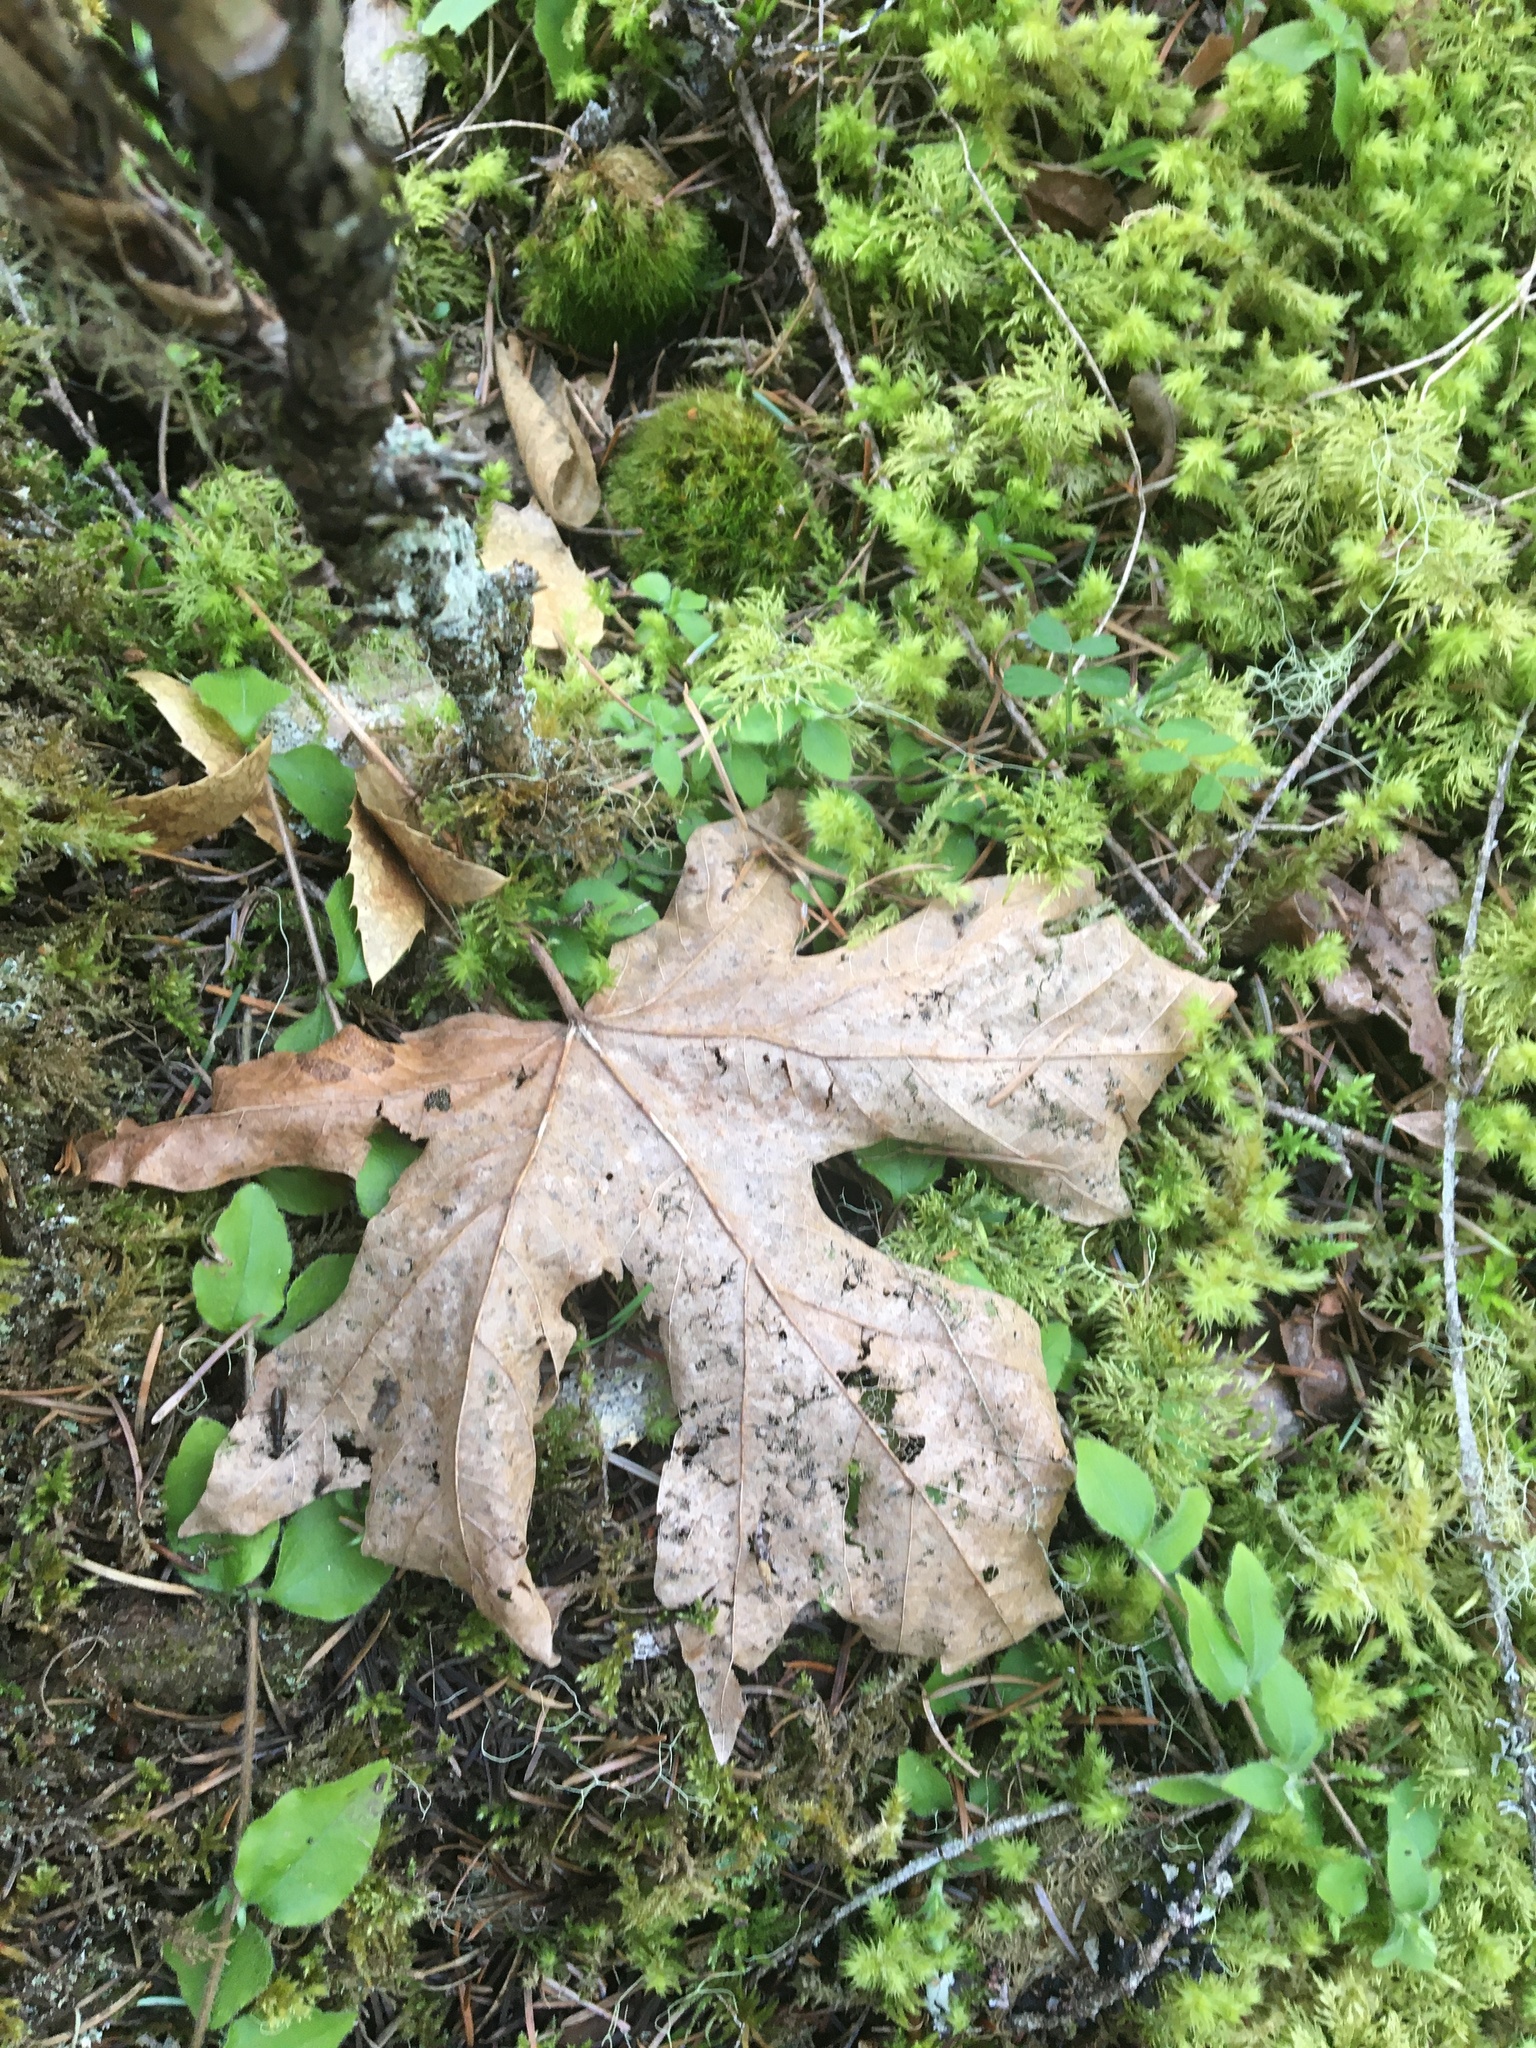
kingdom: Plantae
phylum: Tracheophyta
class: Magnoliopsida
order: Sapindales
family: Sapindaceae
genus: Acer
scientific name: Acer macrophyllum
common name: Oregon maple
